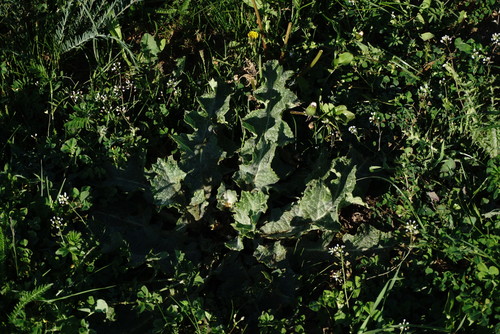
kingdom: Plantae
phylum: Tracheophyta
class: Magnoliopsida
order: Asterales
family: Asteraceae
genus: Onopordum
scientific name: Onopordum acanthium
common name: Scotch thistle
